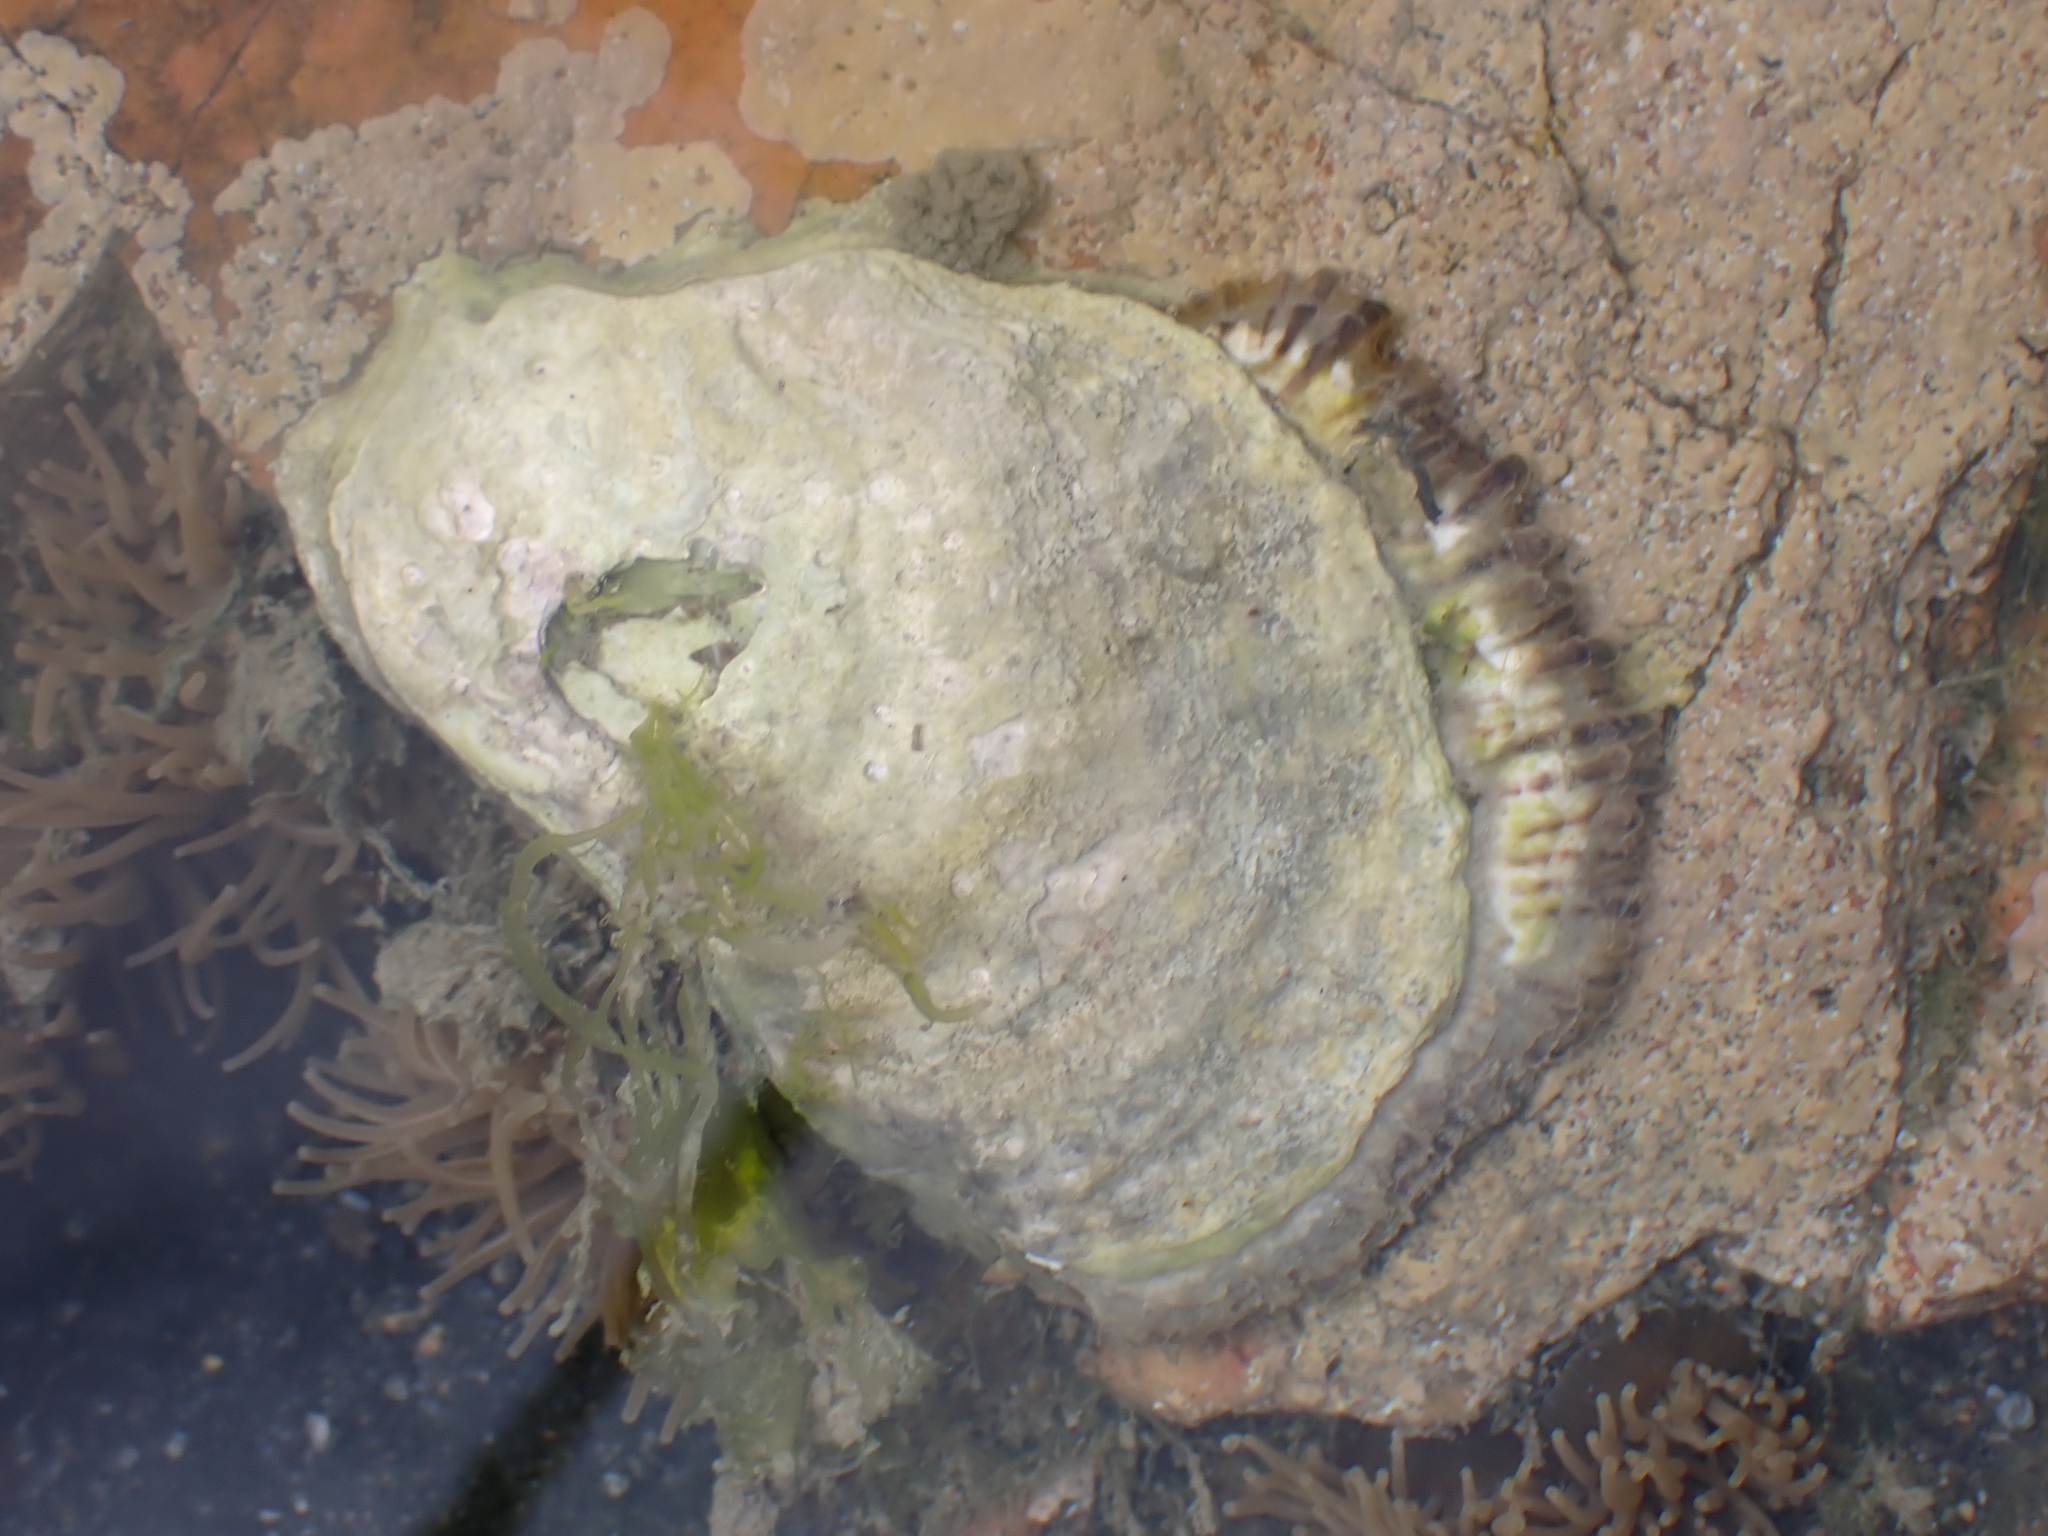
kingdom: Animalia
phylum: Mollusca
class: Bivalvia
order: Ostreida
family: Ostreidae
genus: Magallana
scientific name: Magallana gigas
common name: Pacific oyster
